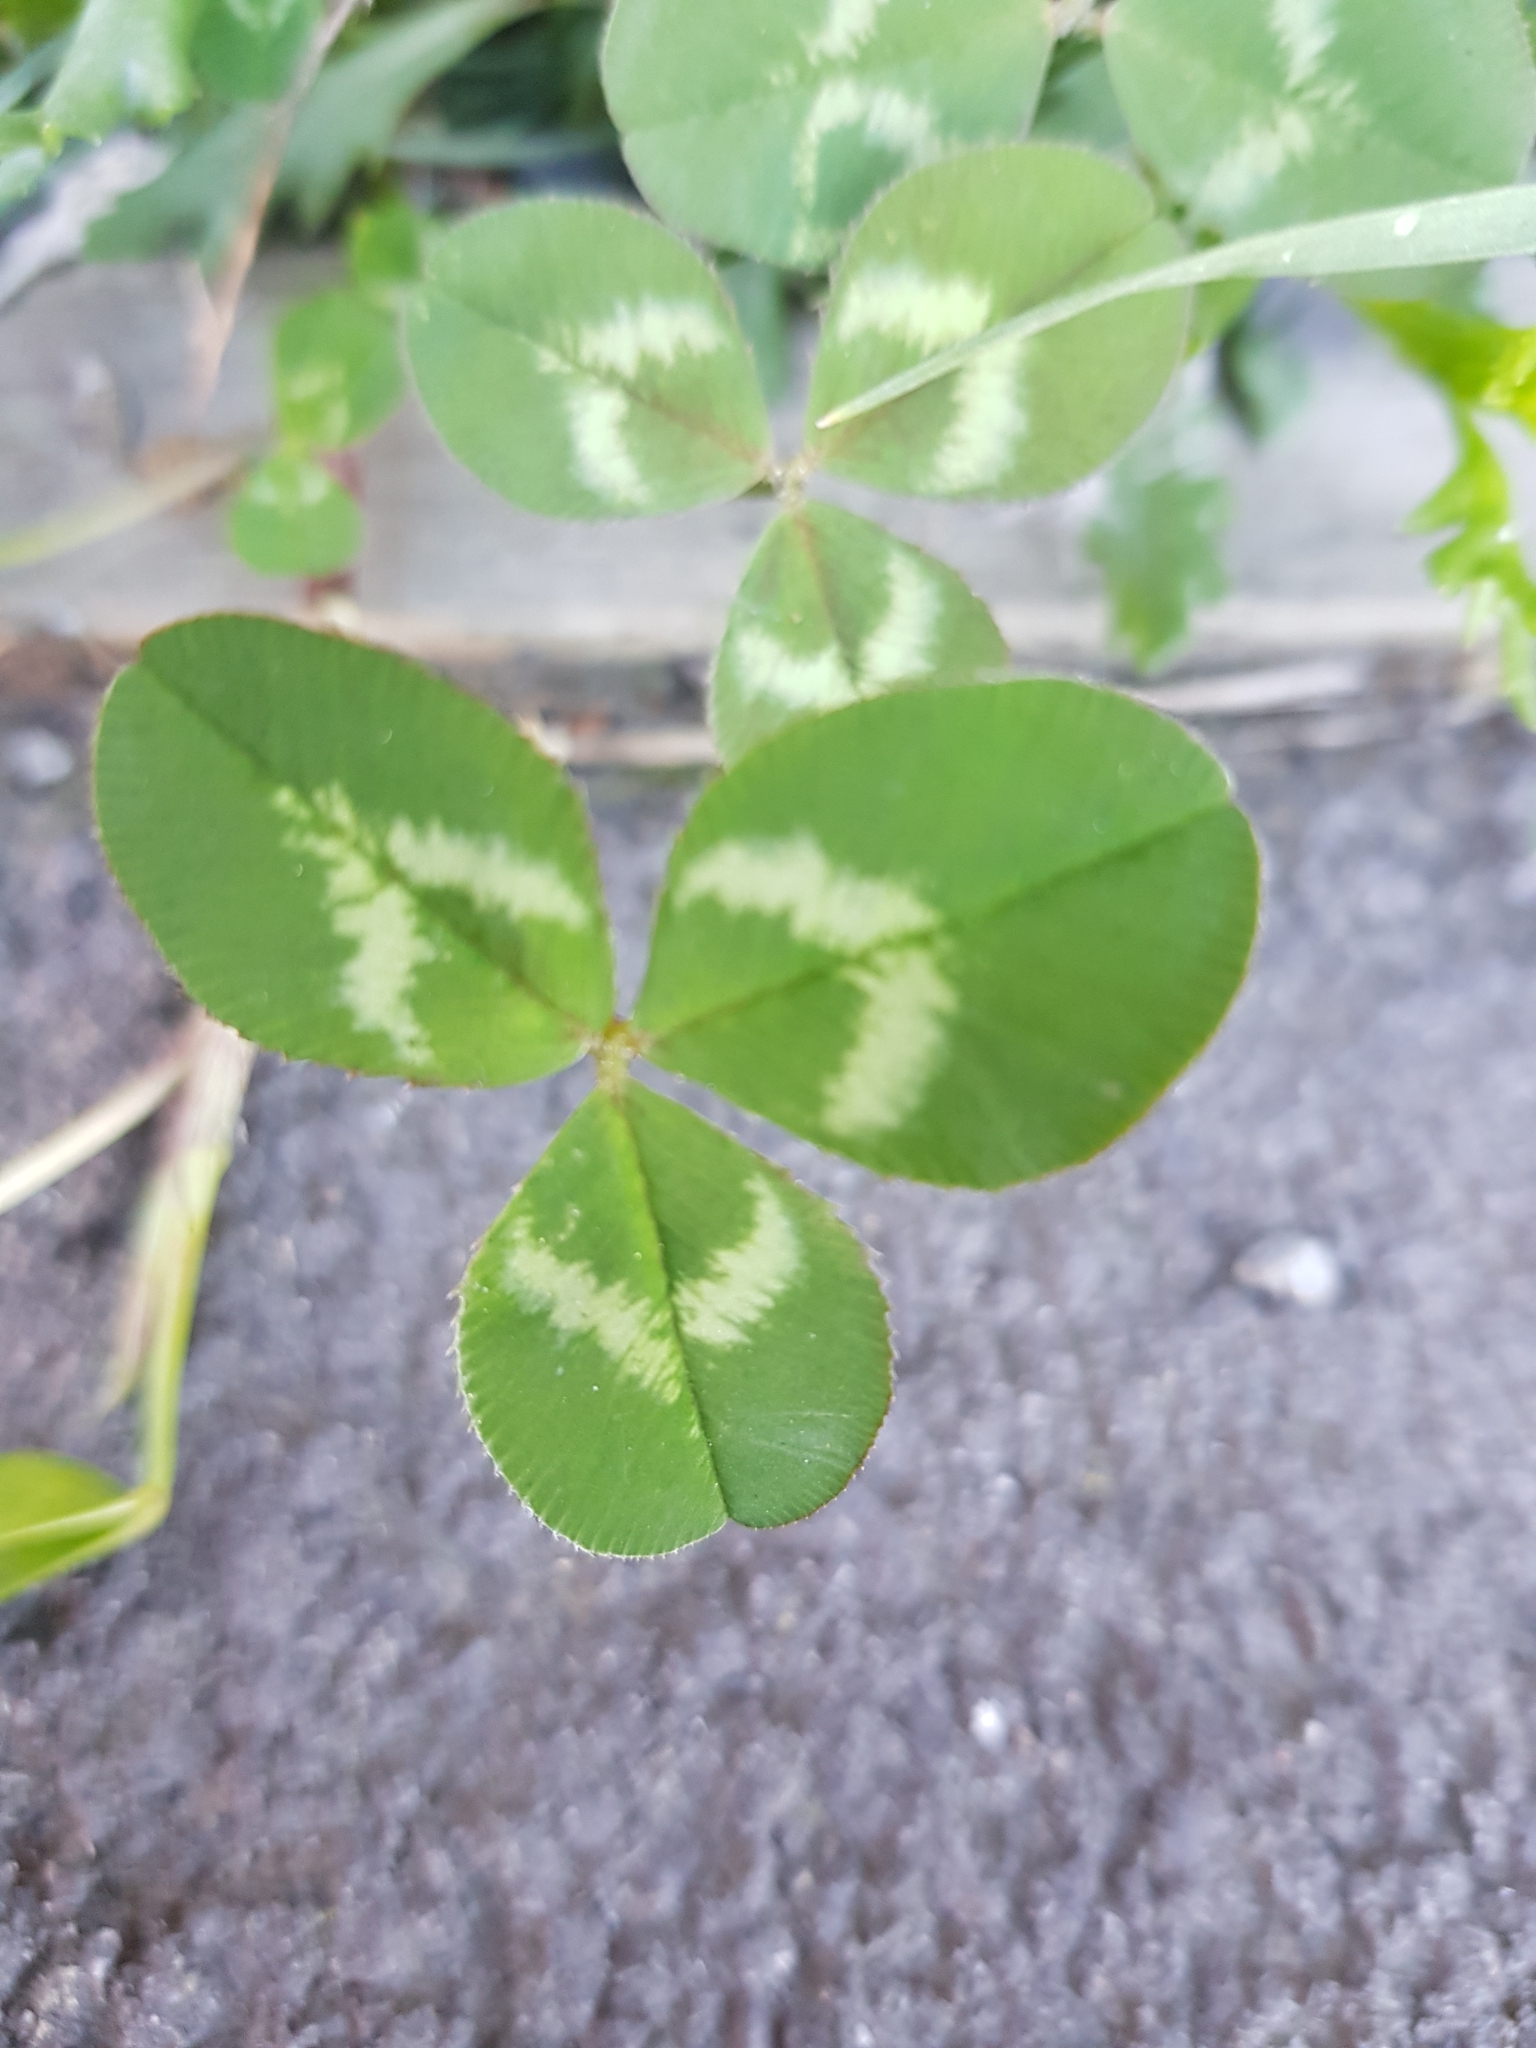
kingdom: Plantae
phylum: Tracheophyta
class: Magnoliopsida
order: Fabales
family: Fabaceae
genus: Trifolium
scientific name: Trifolium repens
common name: White clover
